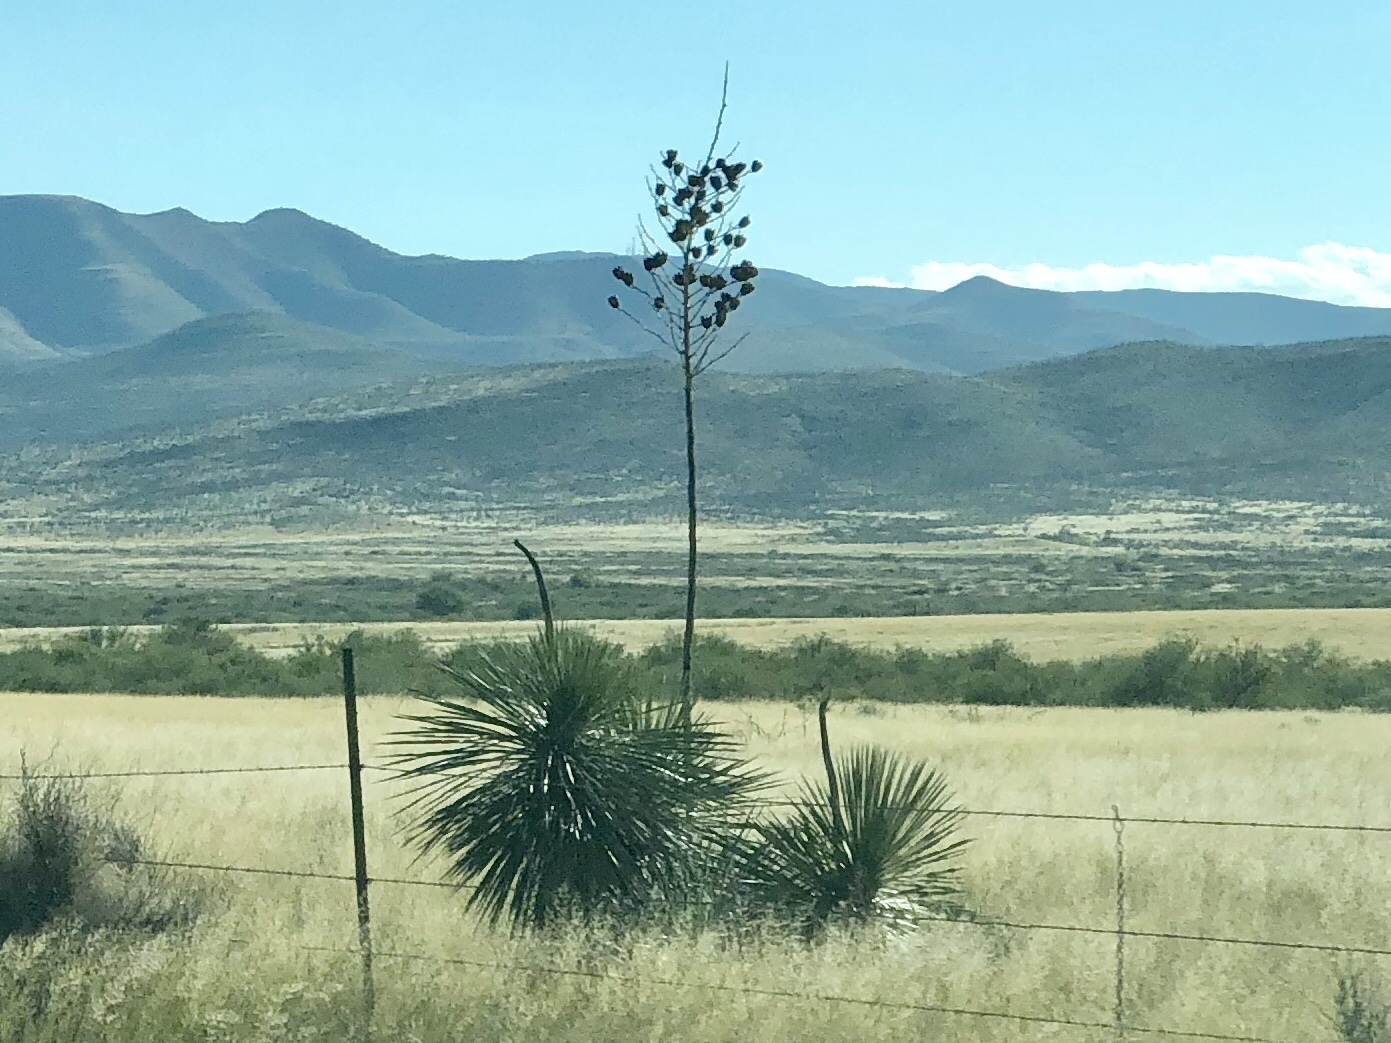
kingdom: Plantae
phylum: Tracheophyta
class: Liliopsida
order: Asparagales
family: Asparagaceae
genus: Yucca
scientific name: Yucca elata
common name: Palmella
